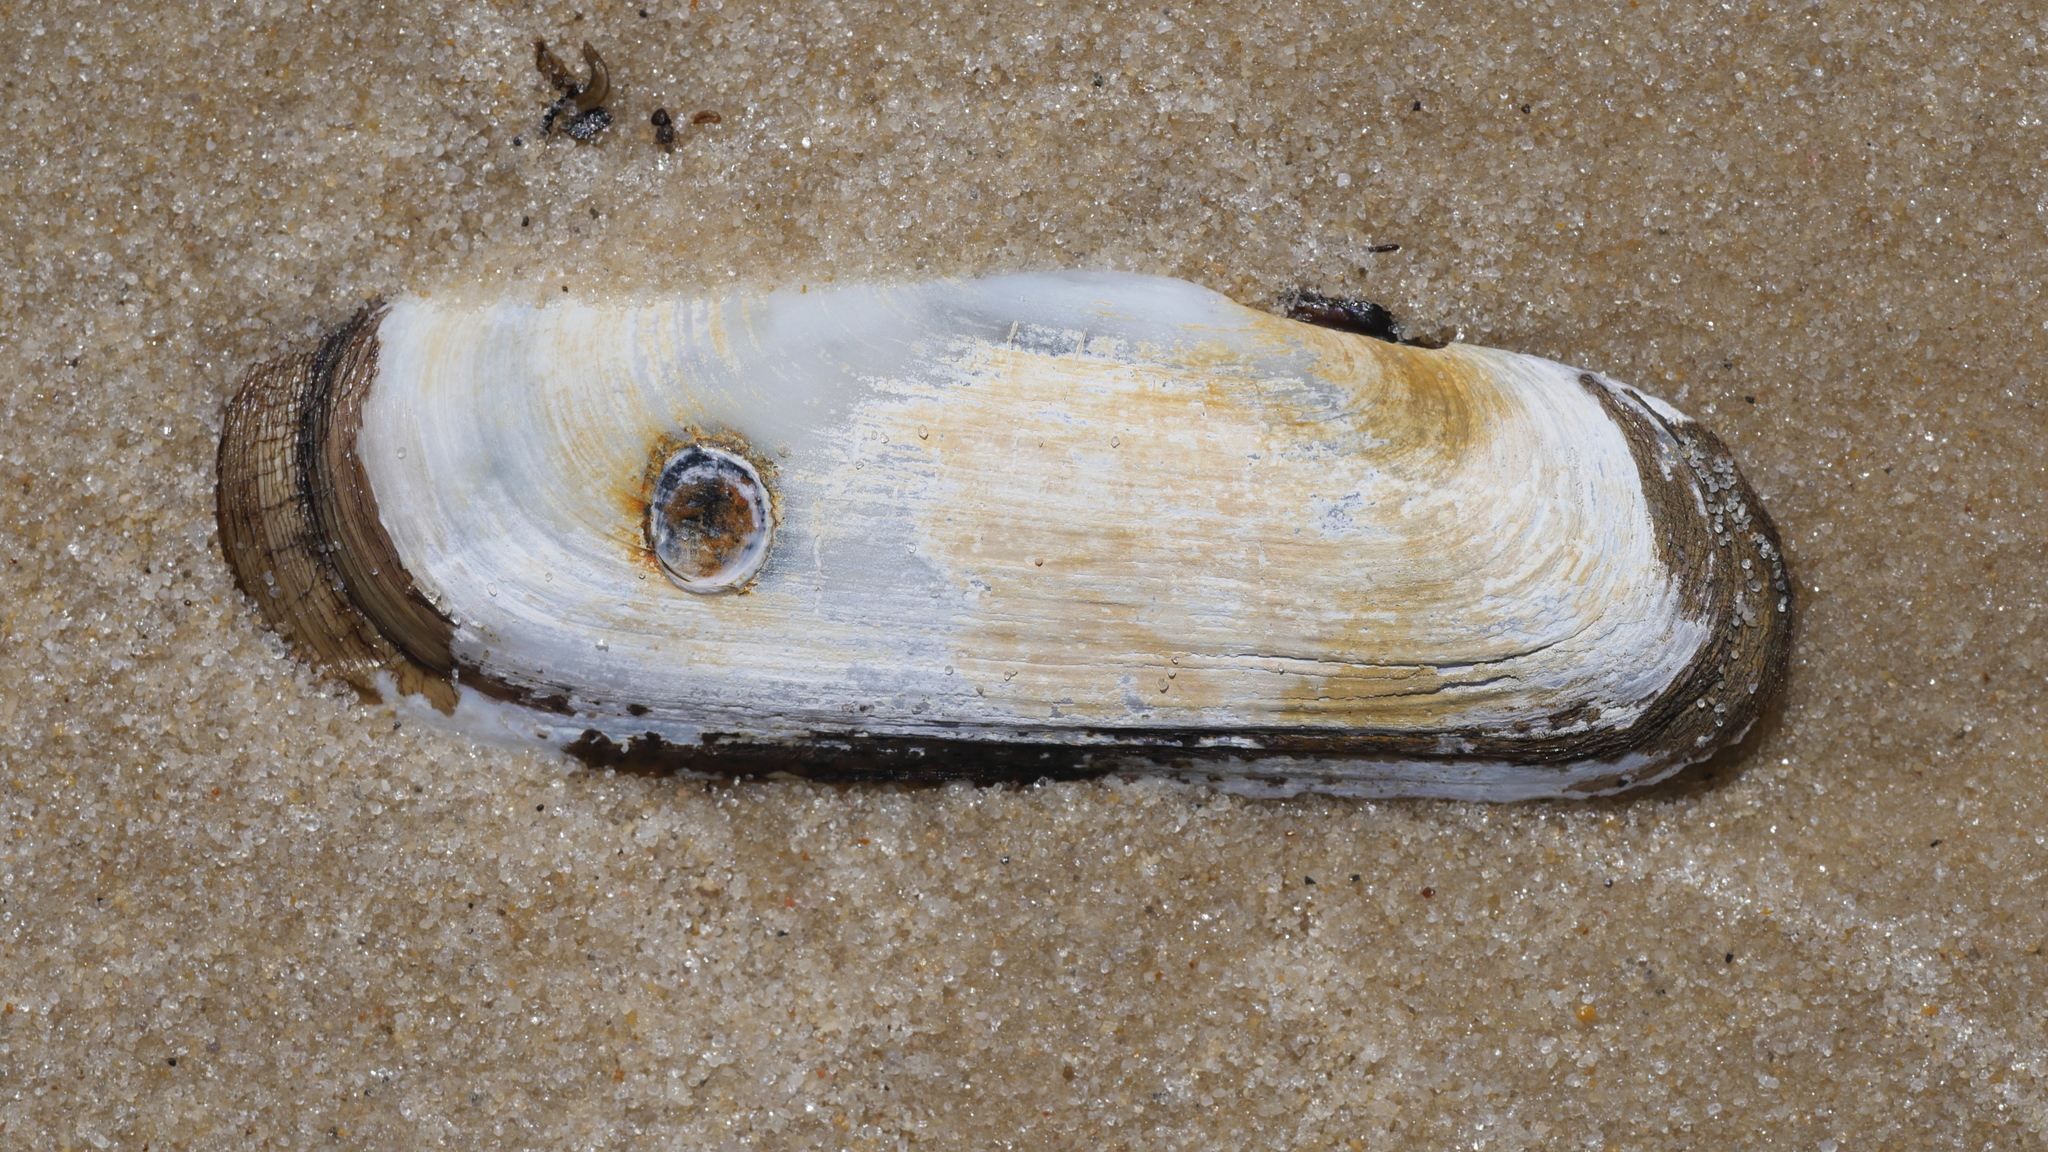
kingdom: Animalia
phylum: Mollusca
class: Bivalvia
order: Cardiida
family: Solecurtidae
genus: Tagelus
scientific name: Tagelus plebeius
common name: Stout tagelus
